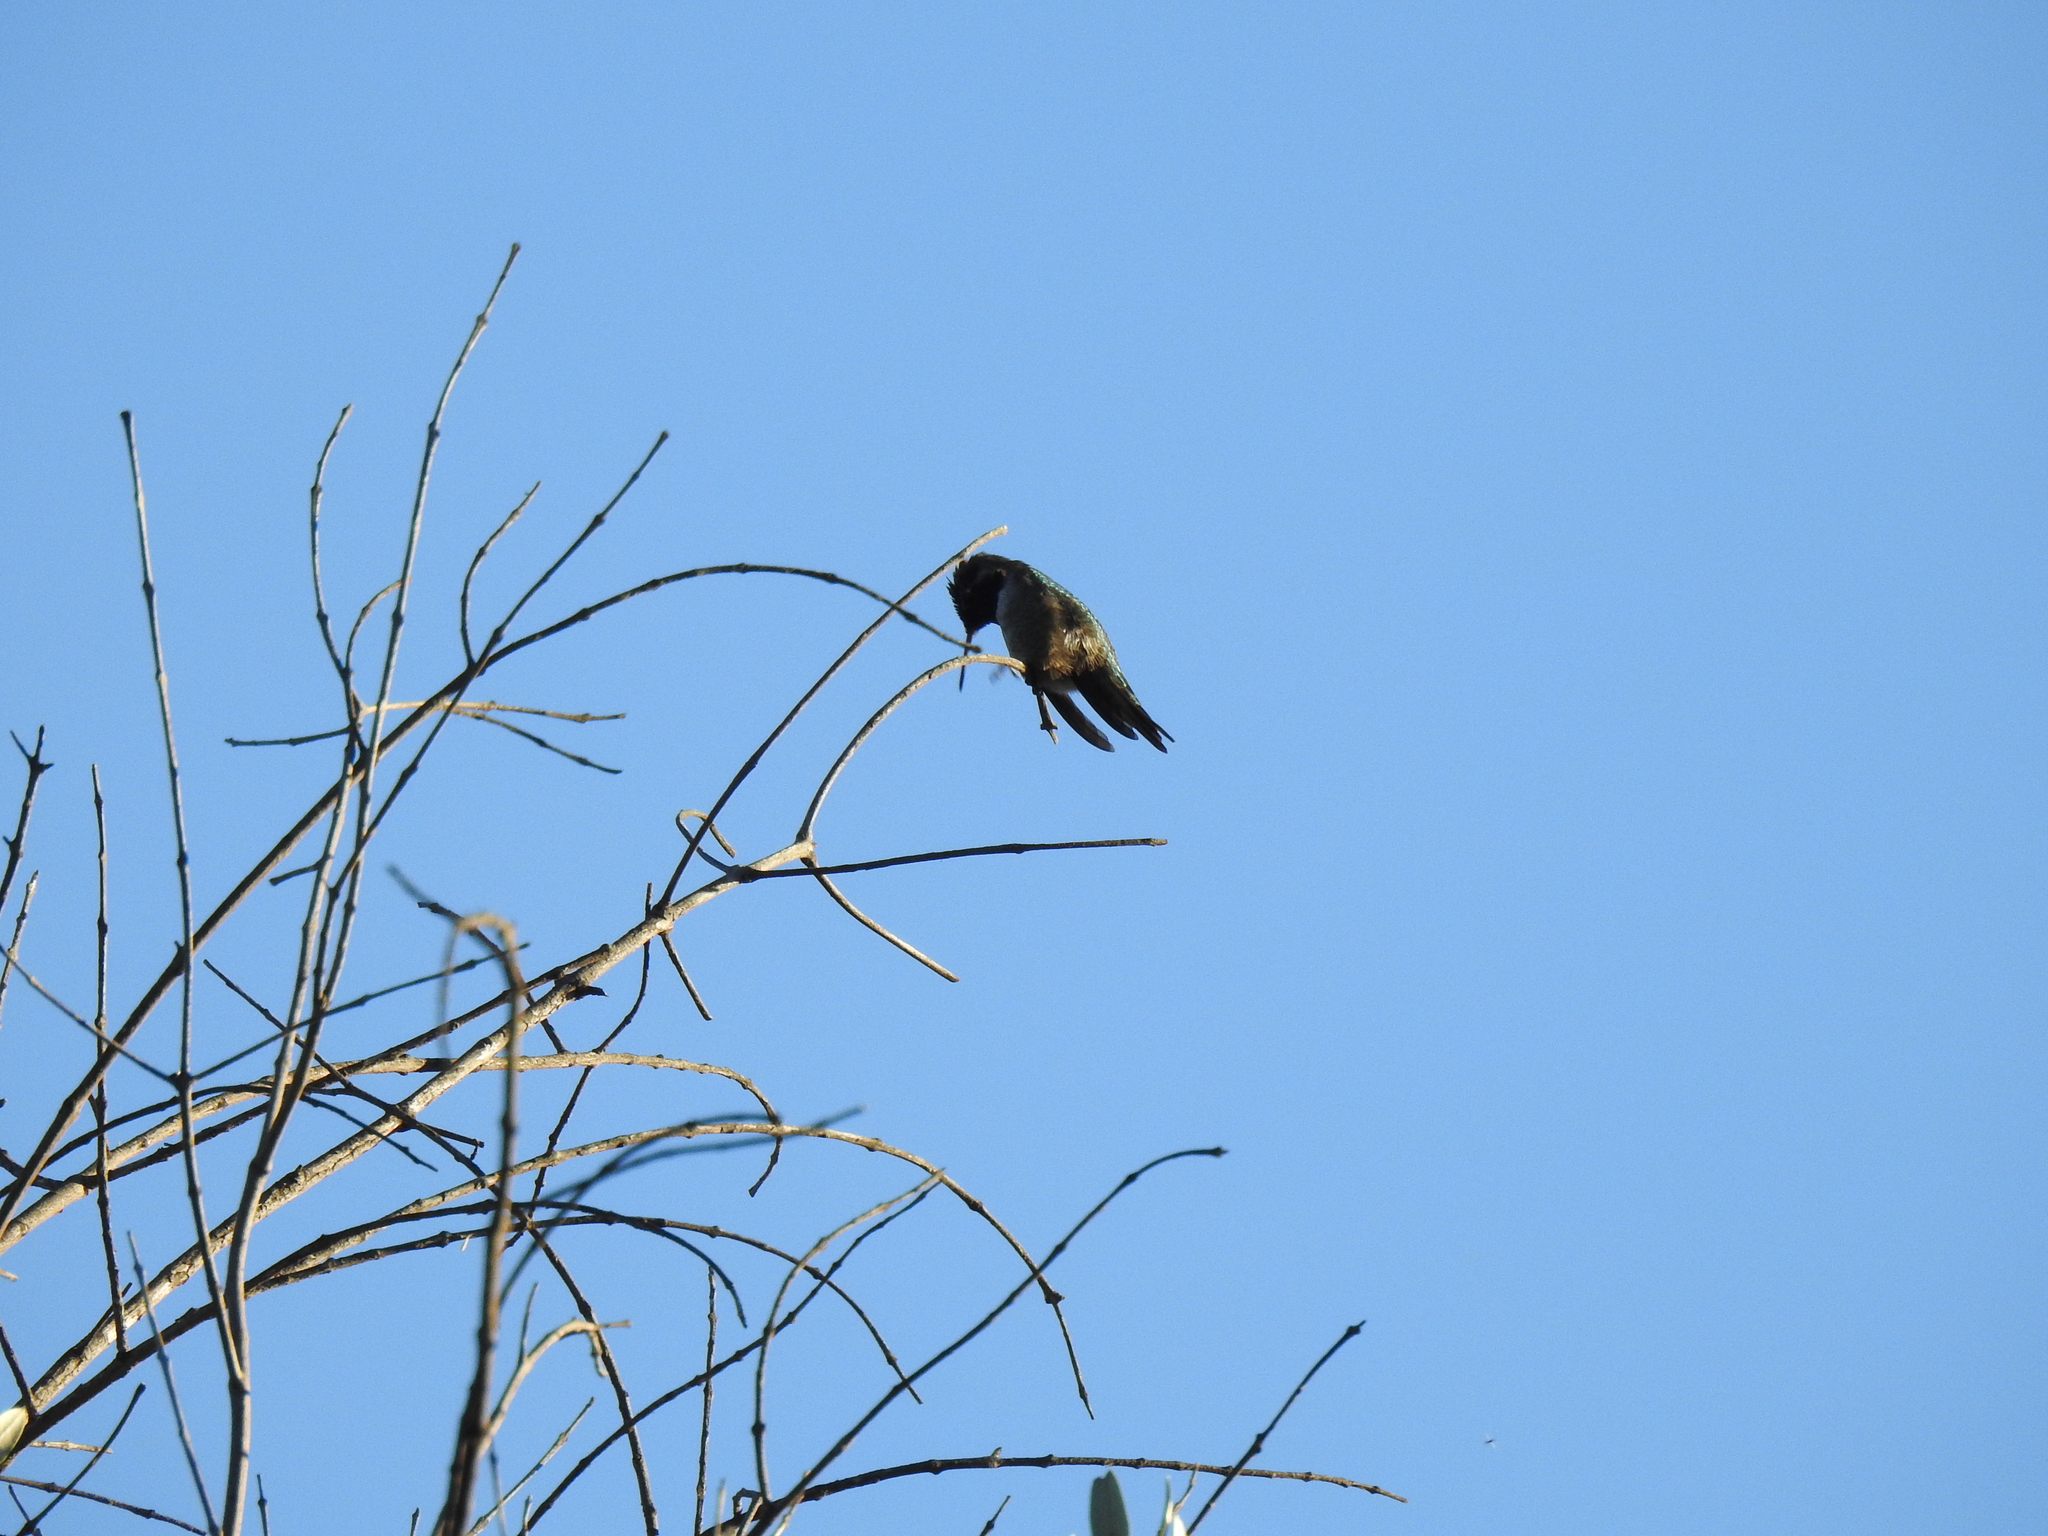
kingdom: Animalia
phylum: Chordata
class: Aves
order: Apodiformes
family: Trochilidae
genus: Calypte
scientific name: Calypte anna
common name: Anna's hummingbird
